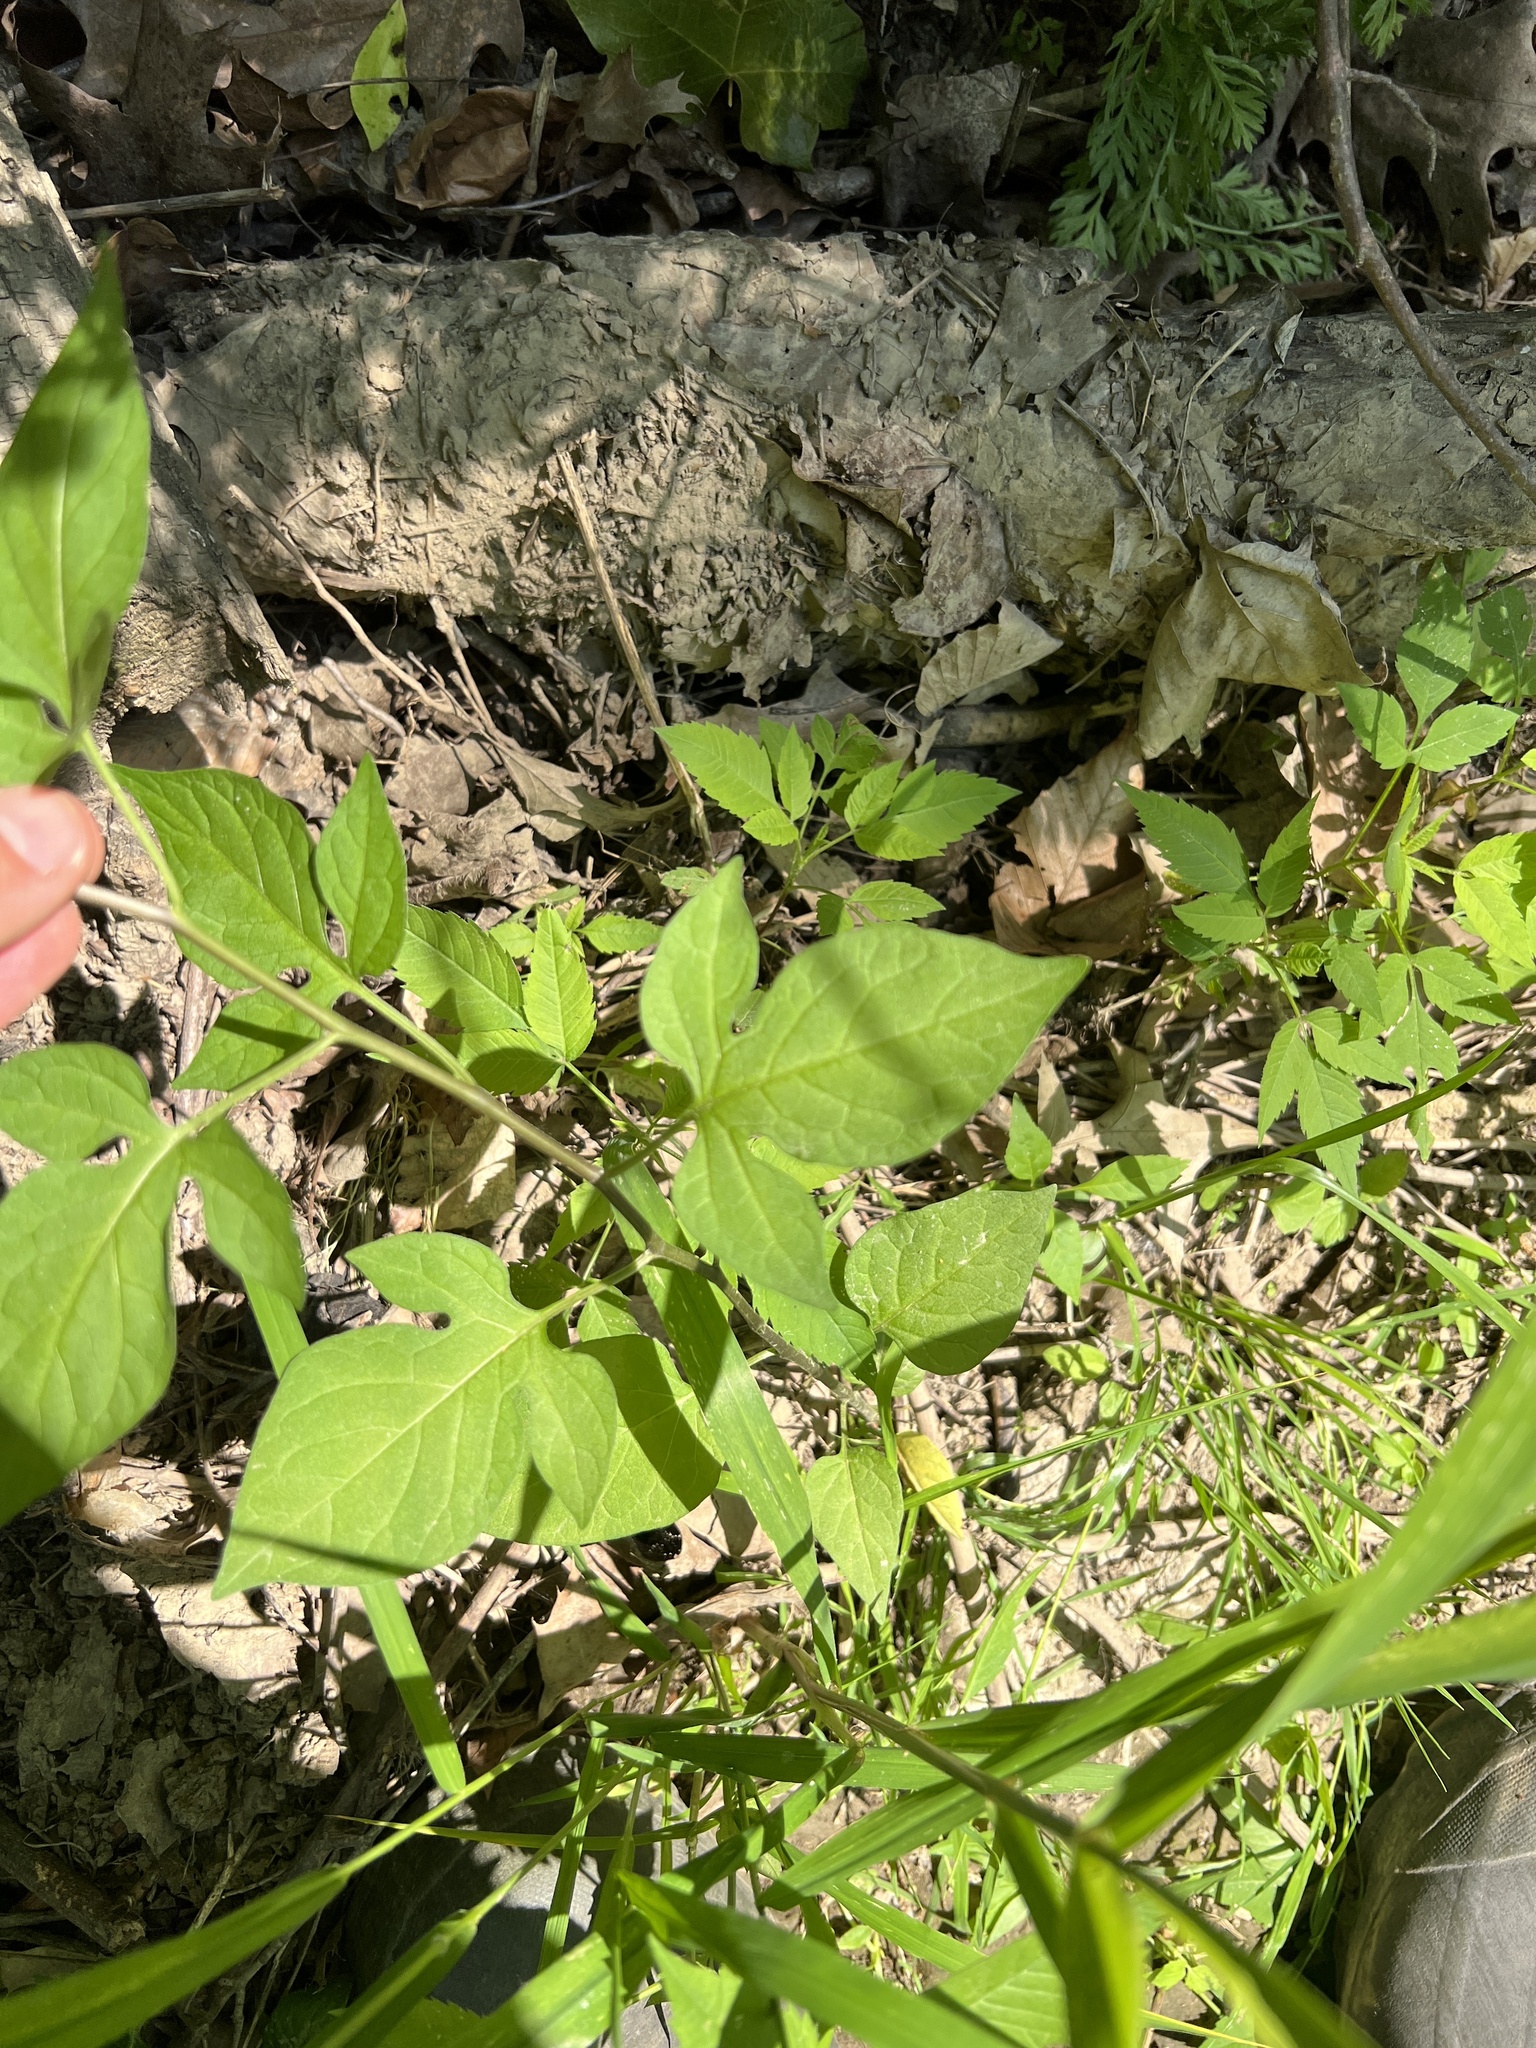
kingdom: Plantae
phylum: Tracheophyta
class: Magnoliopsida
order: Solanales
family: Solanaceae
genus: Solanum
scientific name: Solanum dulcamara
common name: Climbing nightshade
